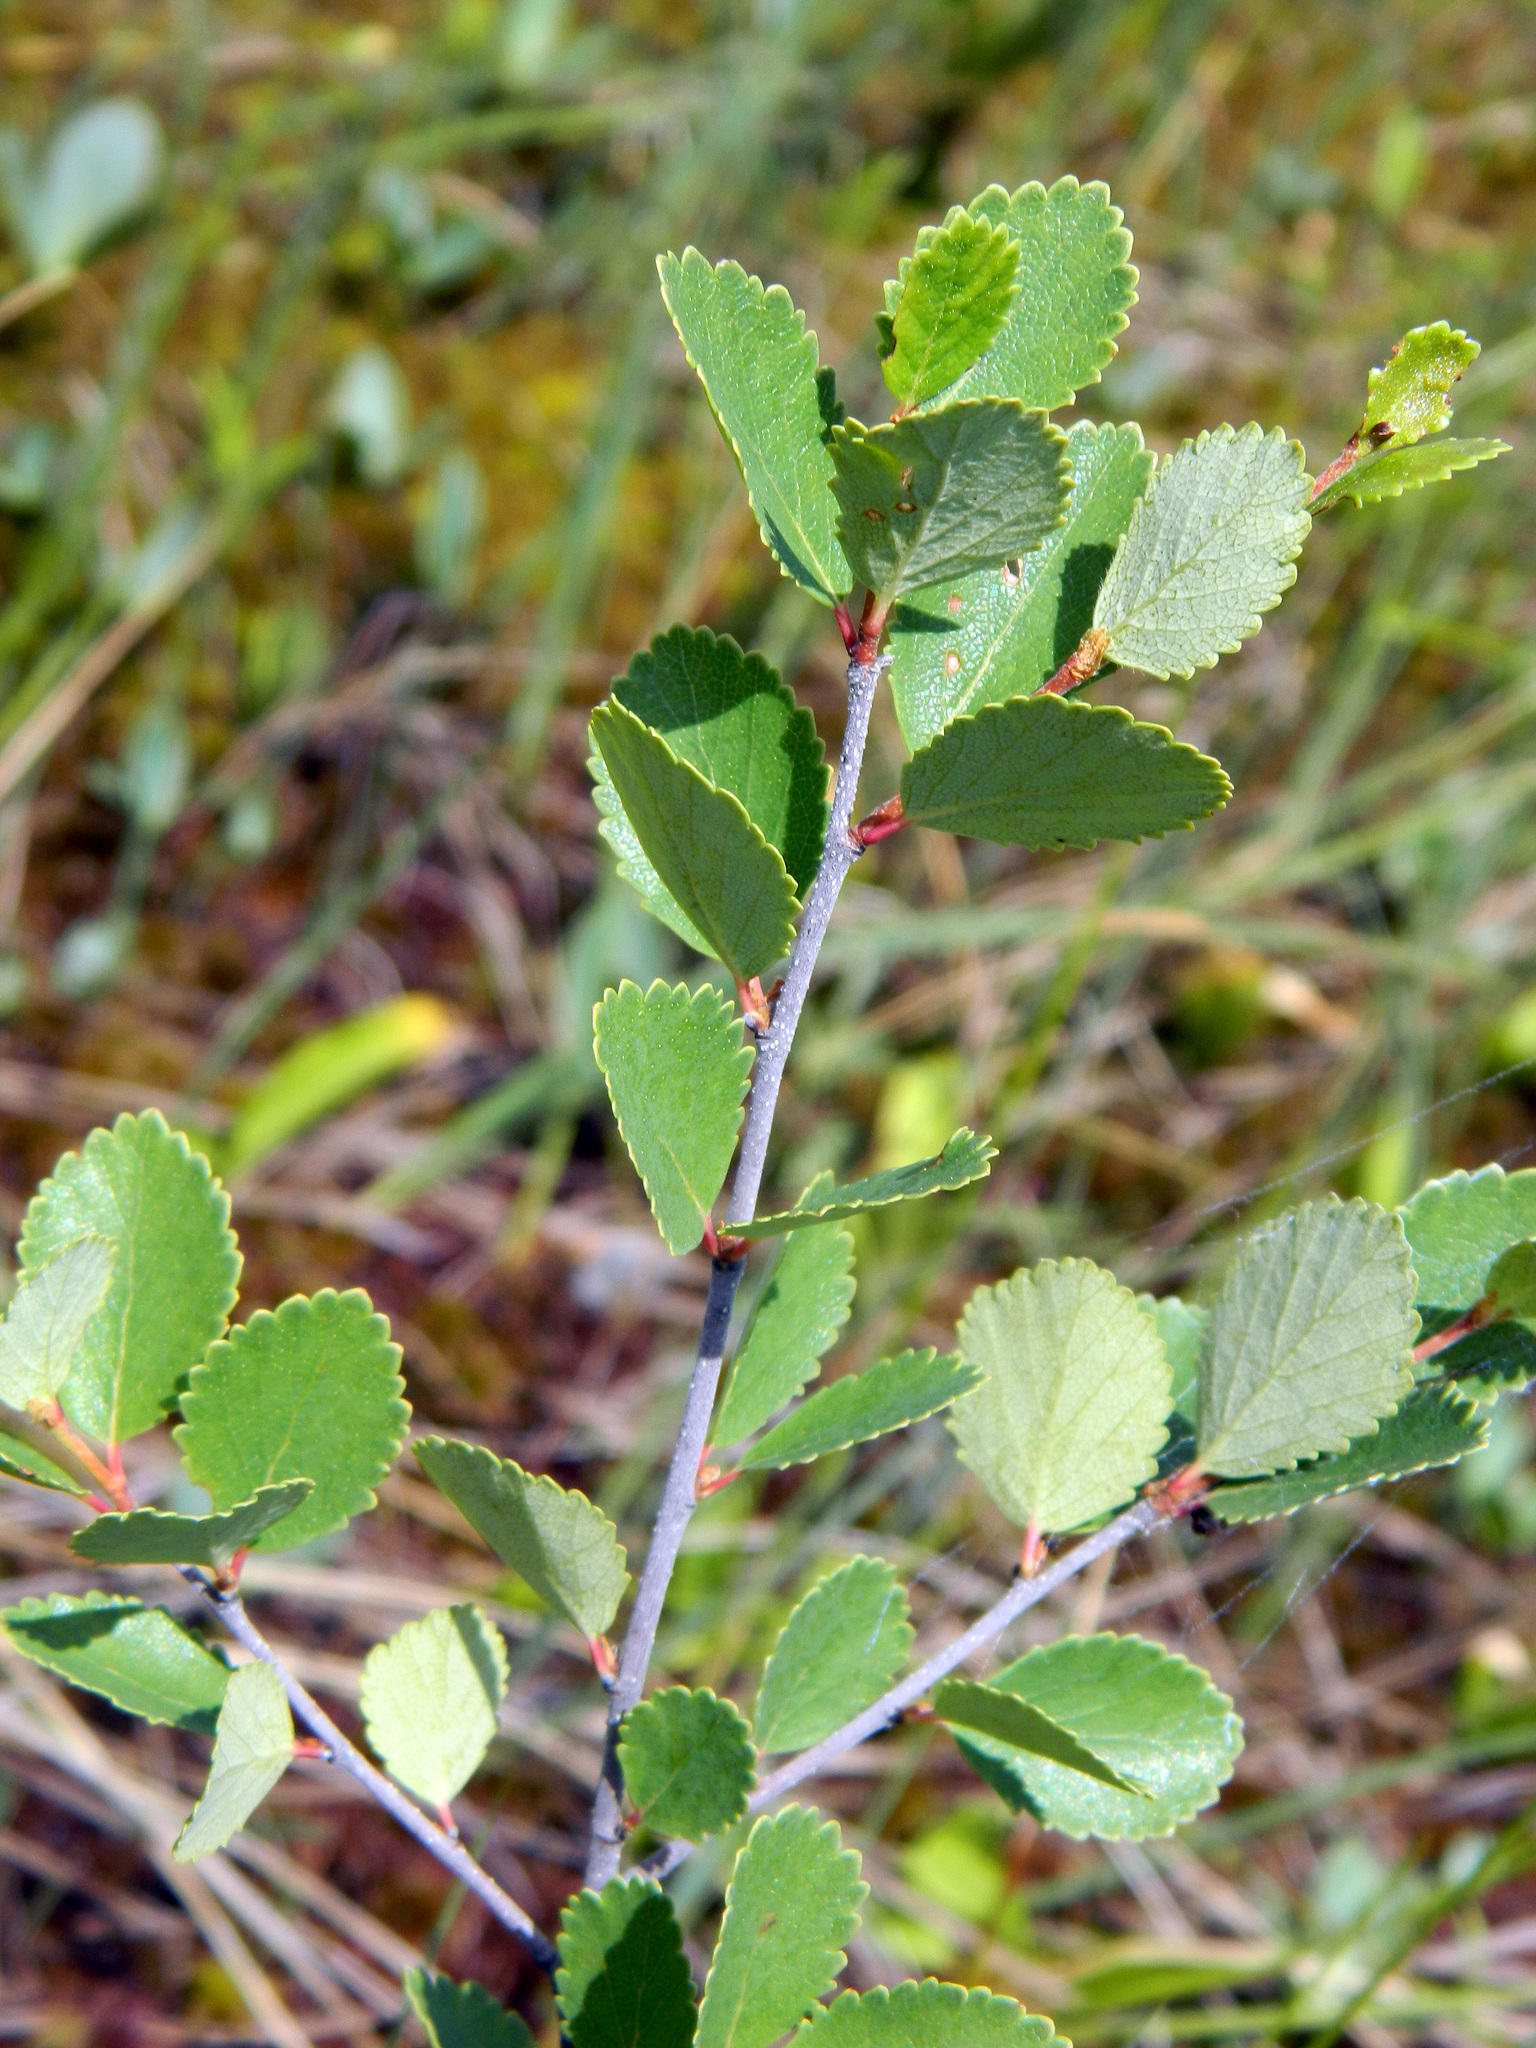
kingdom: Plantae
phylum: Tracheophyta
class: Magnoliopsida
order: Fagales
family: Betulaceae
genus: Betula
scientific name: Betula pumila
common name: Bog birch
